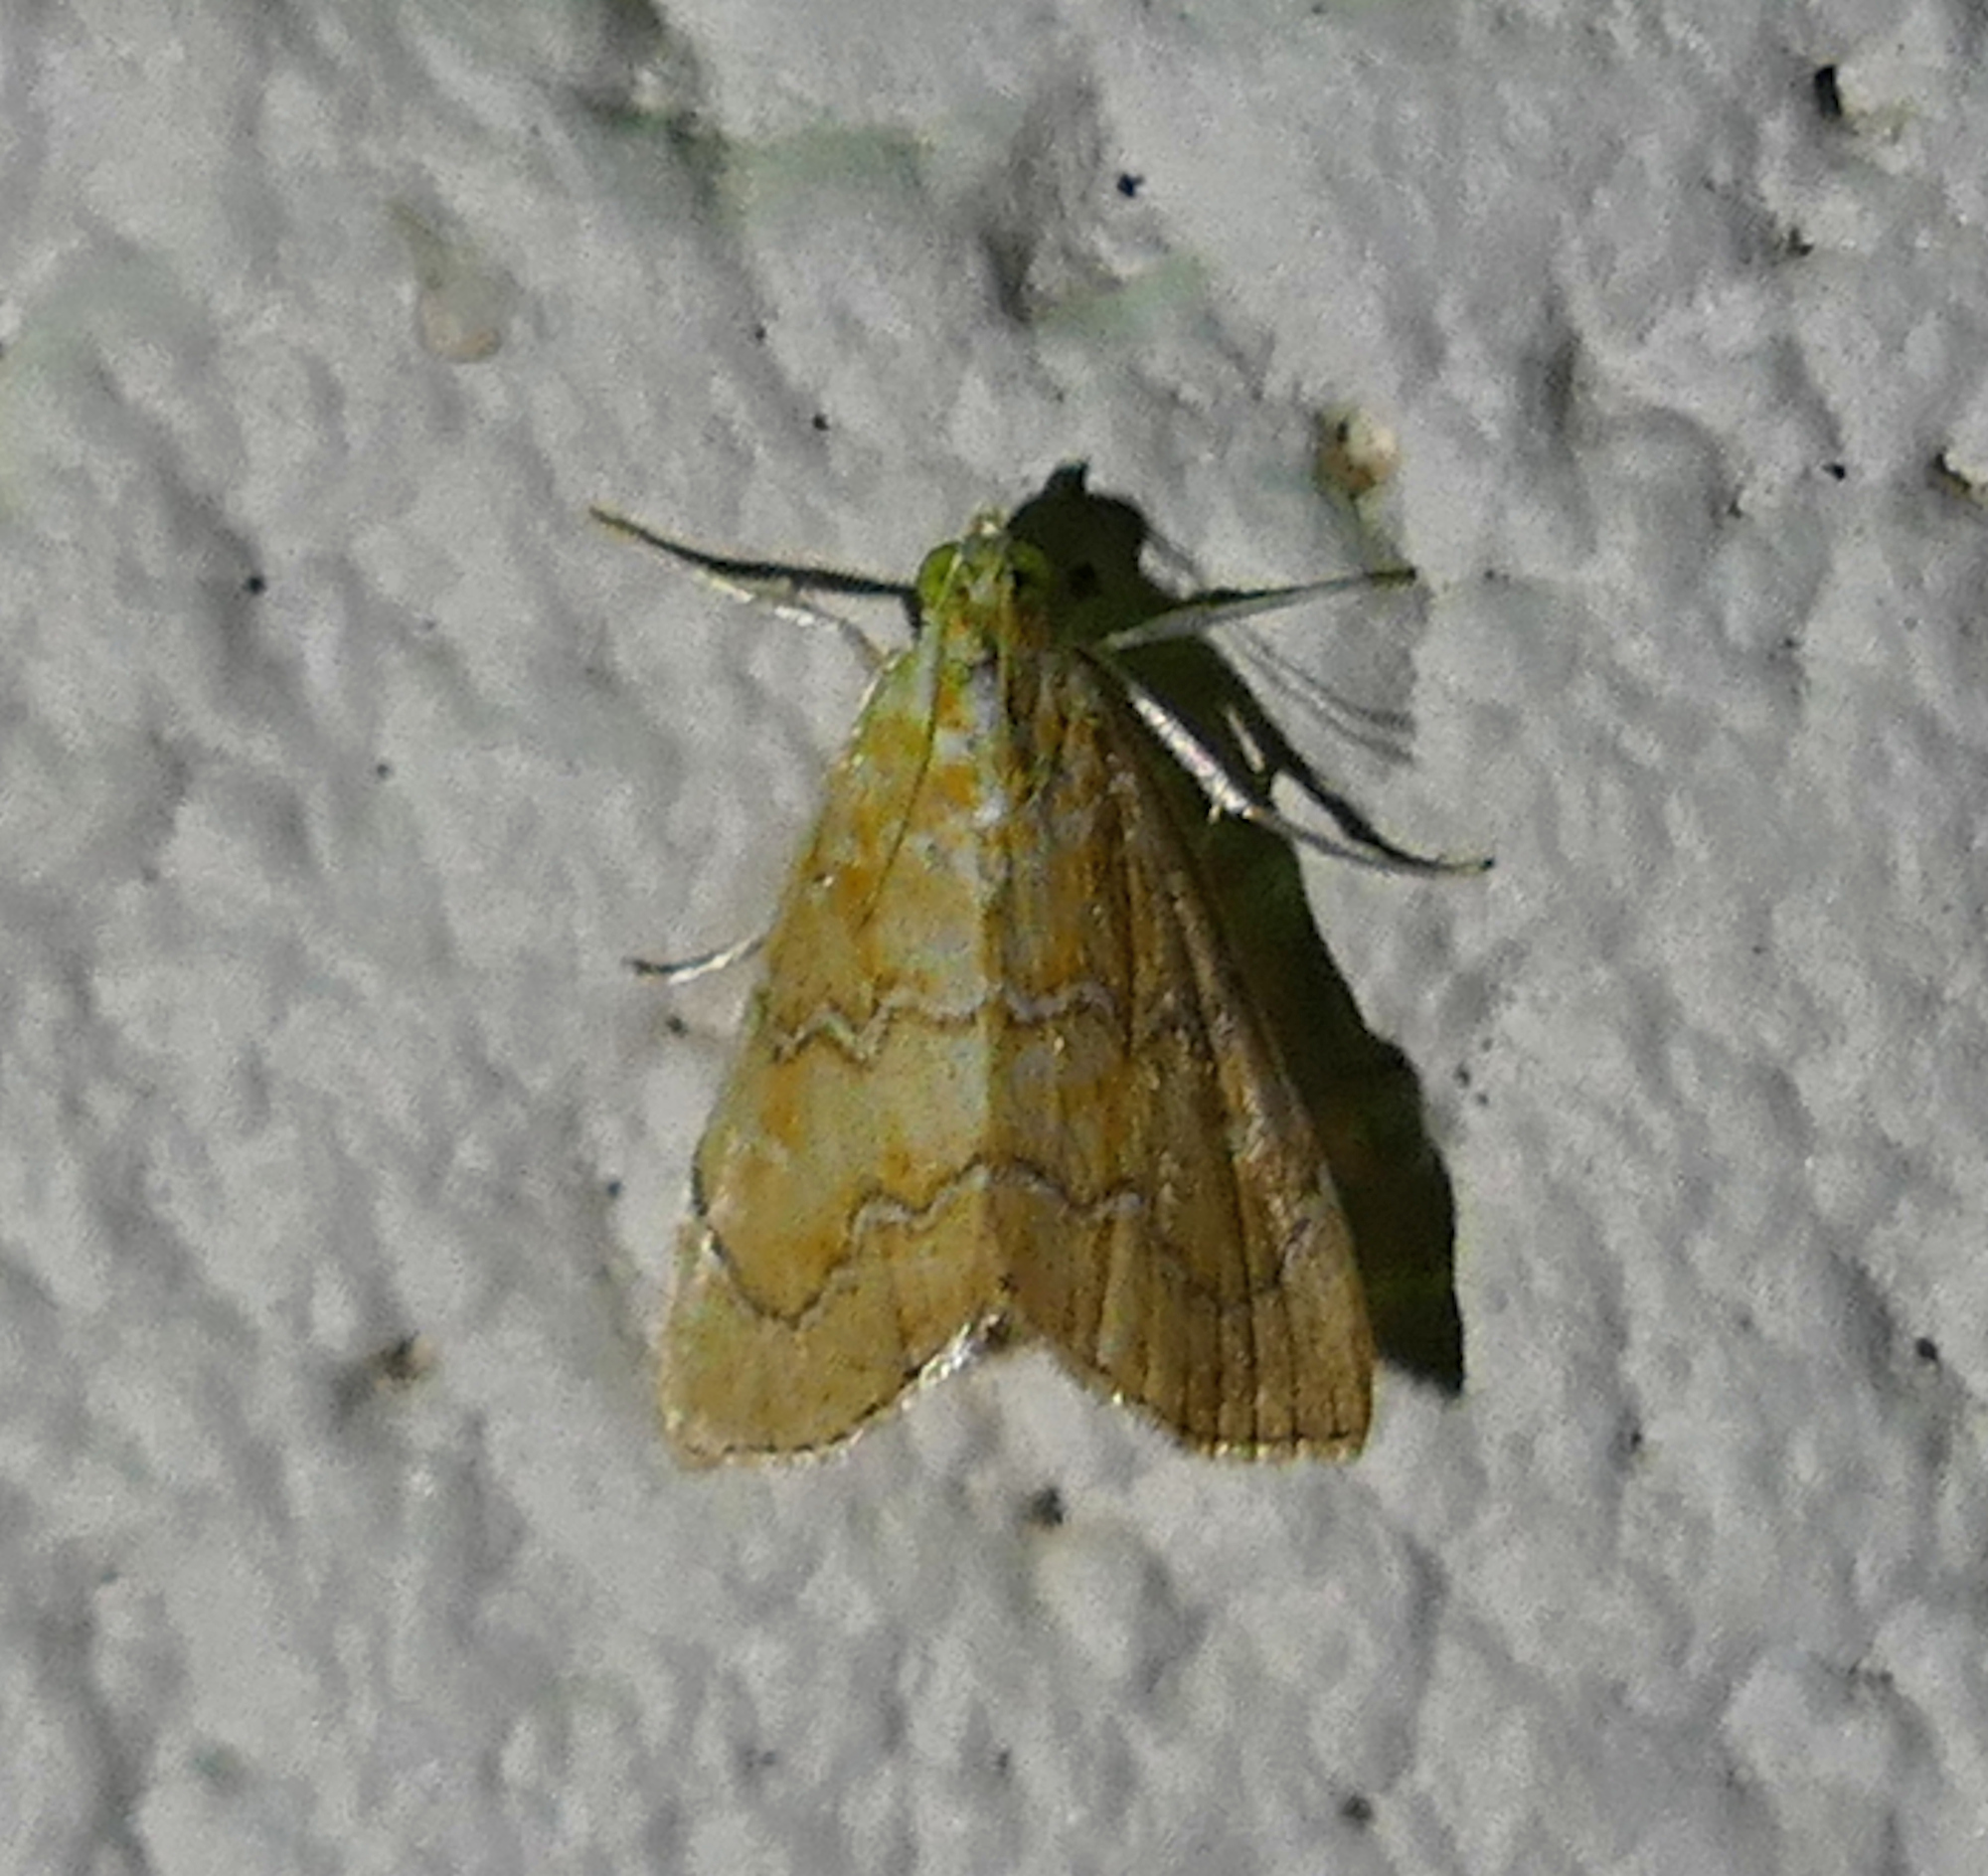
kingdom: Animalia
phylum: Arthropoda
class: Insecta
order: Lepidoptera
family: Crambidae
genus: Glaphyria
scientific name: Glaphyria sesquistrialis
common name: White-roped glaphyria
